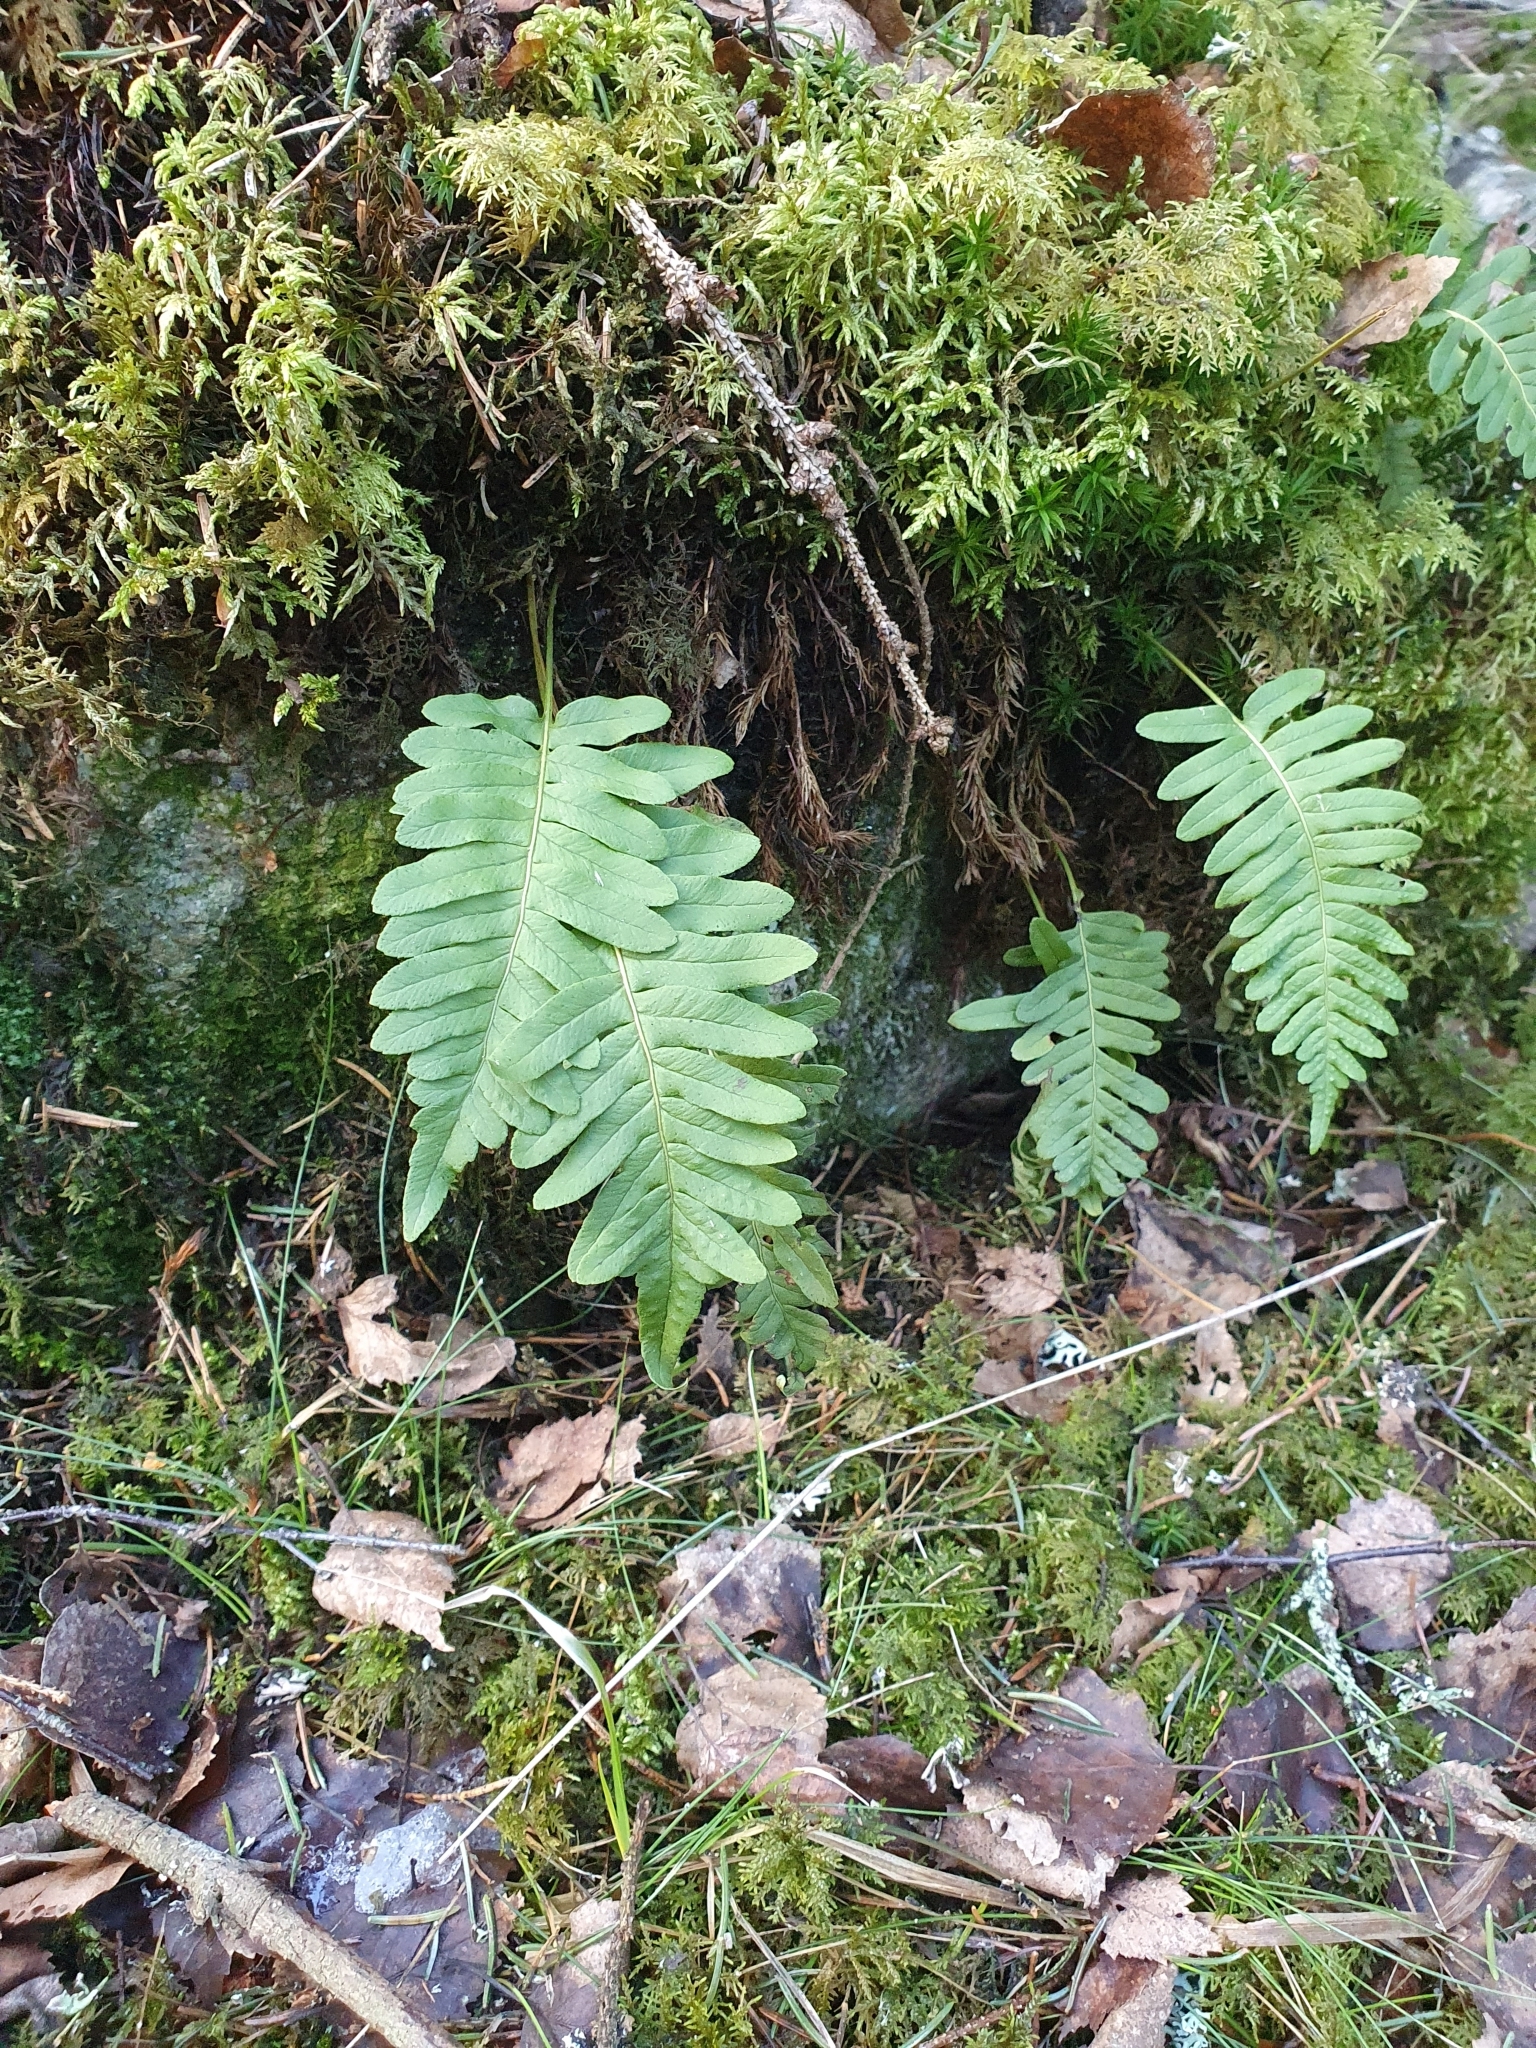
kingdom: Plantae
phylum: Tracheophyta
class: Polypodiopsida
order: Polypodiales
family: Polypodiaceae
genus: Polypodium
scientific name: Polypodium vulgare
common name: Common polypody
